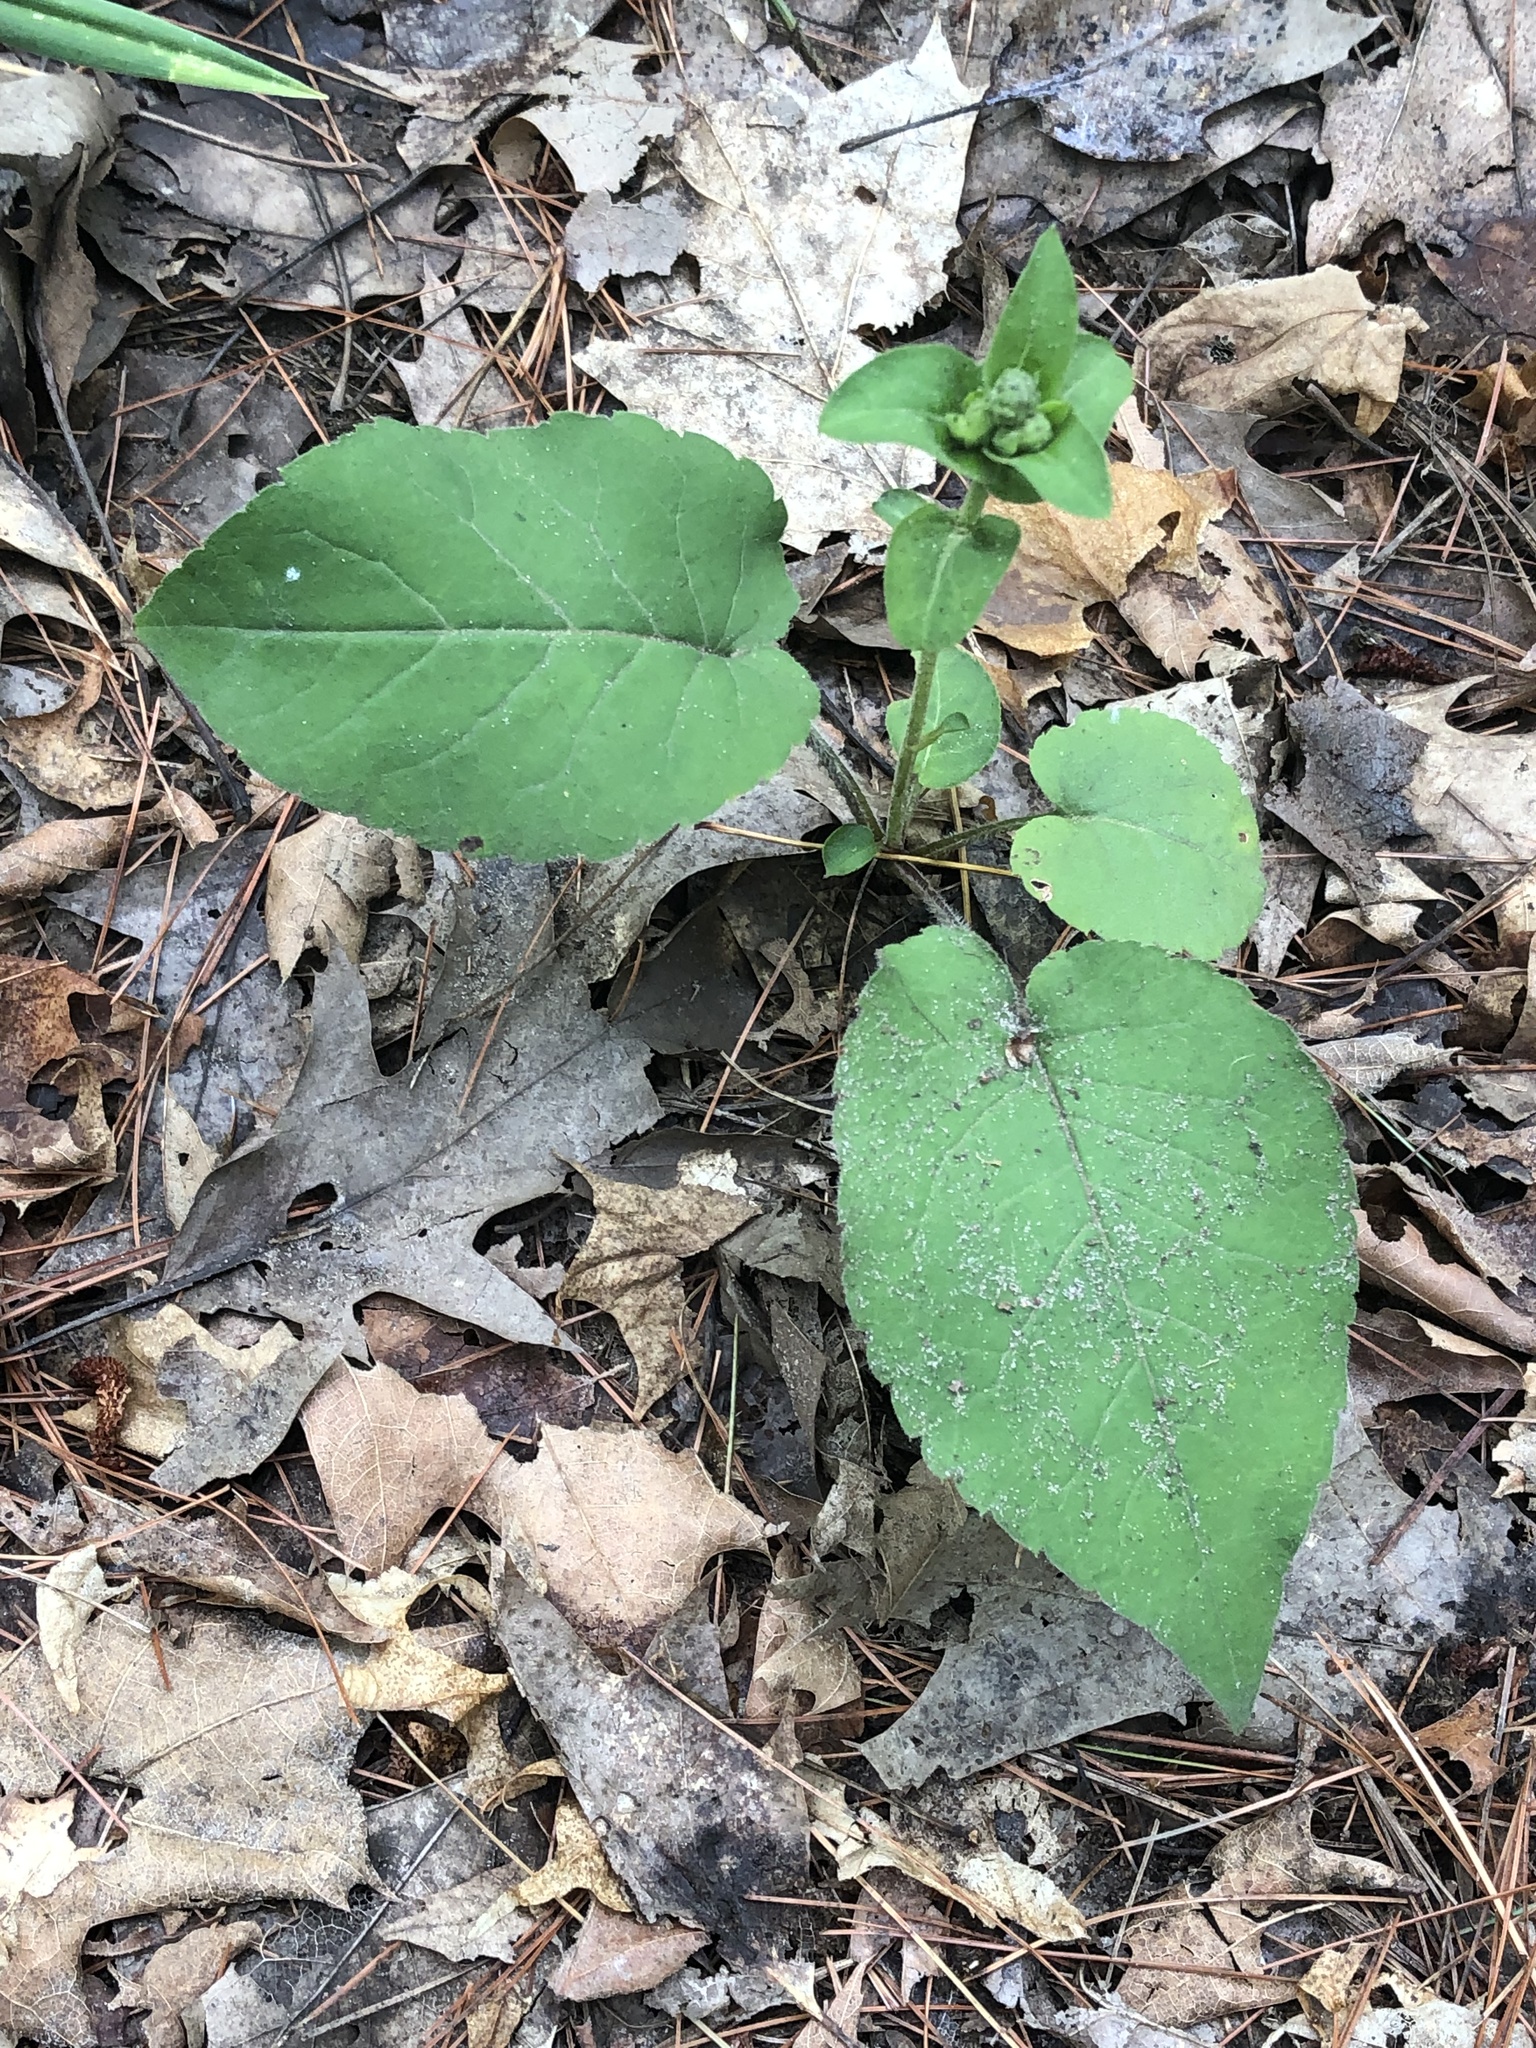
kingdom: Plantae
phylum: Tracheophyta
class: Magnoliopsida
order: Asterales
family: Asteraceae
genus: Eurybia
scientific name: Eurybia macrophylla
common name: Big-leaved aster
